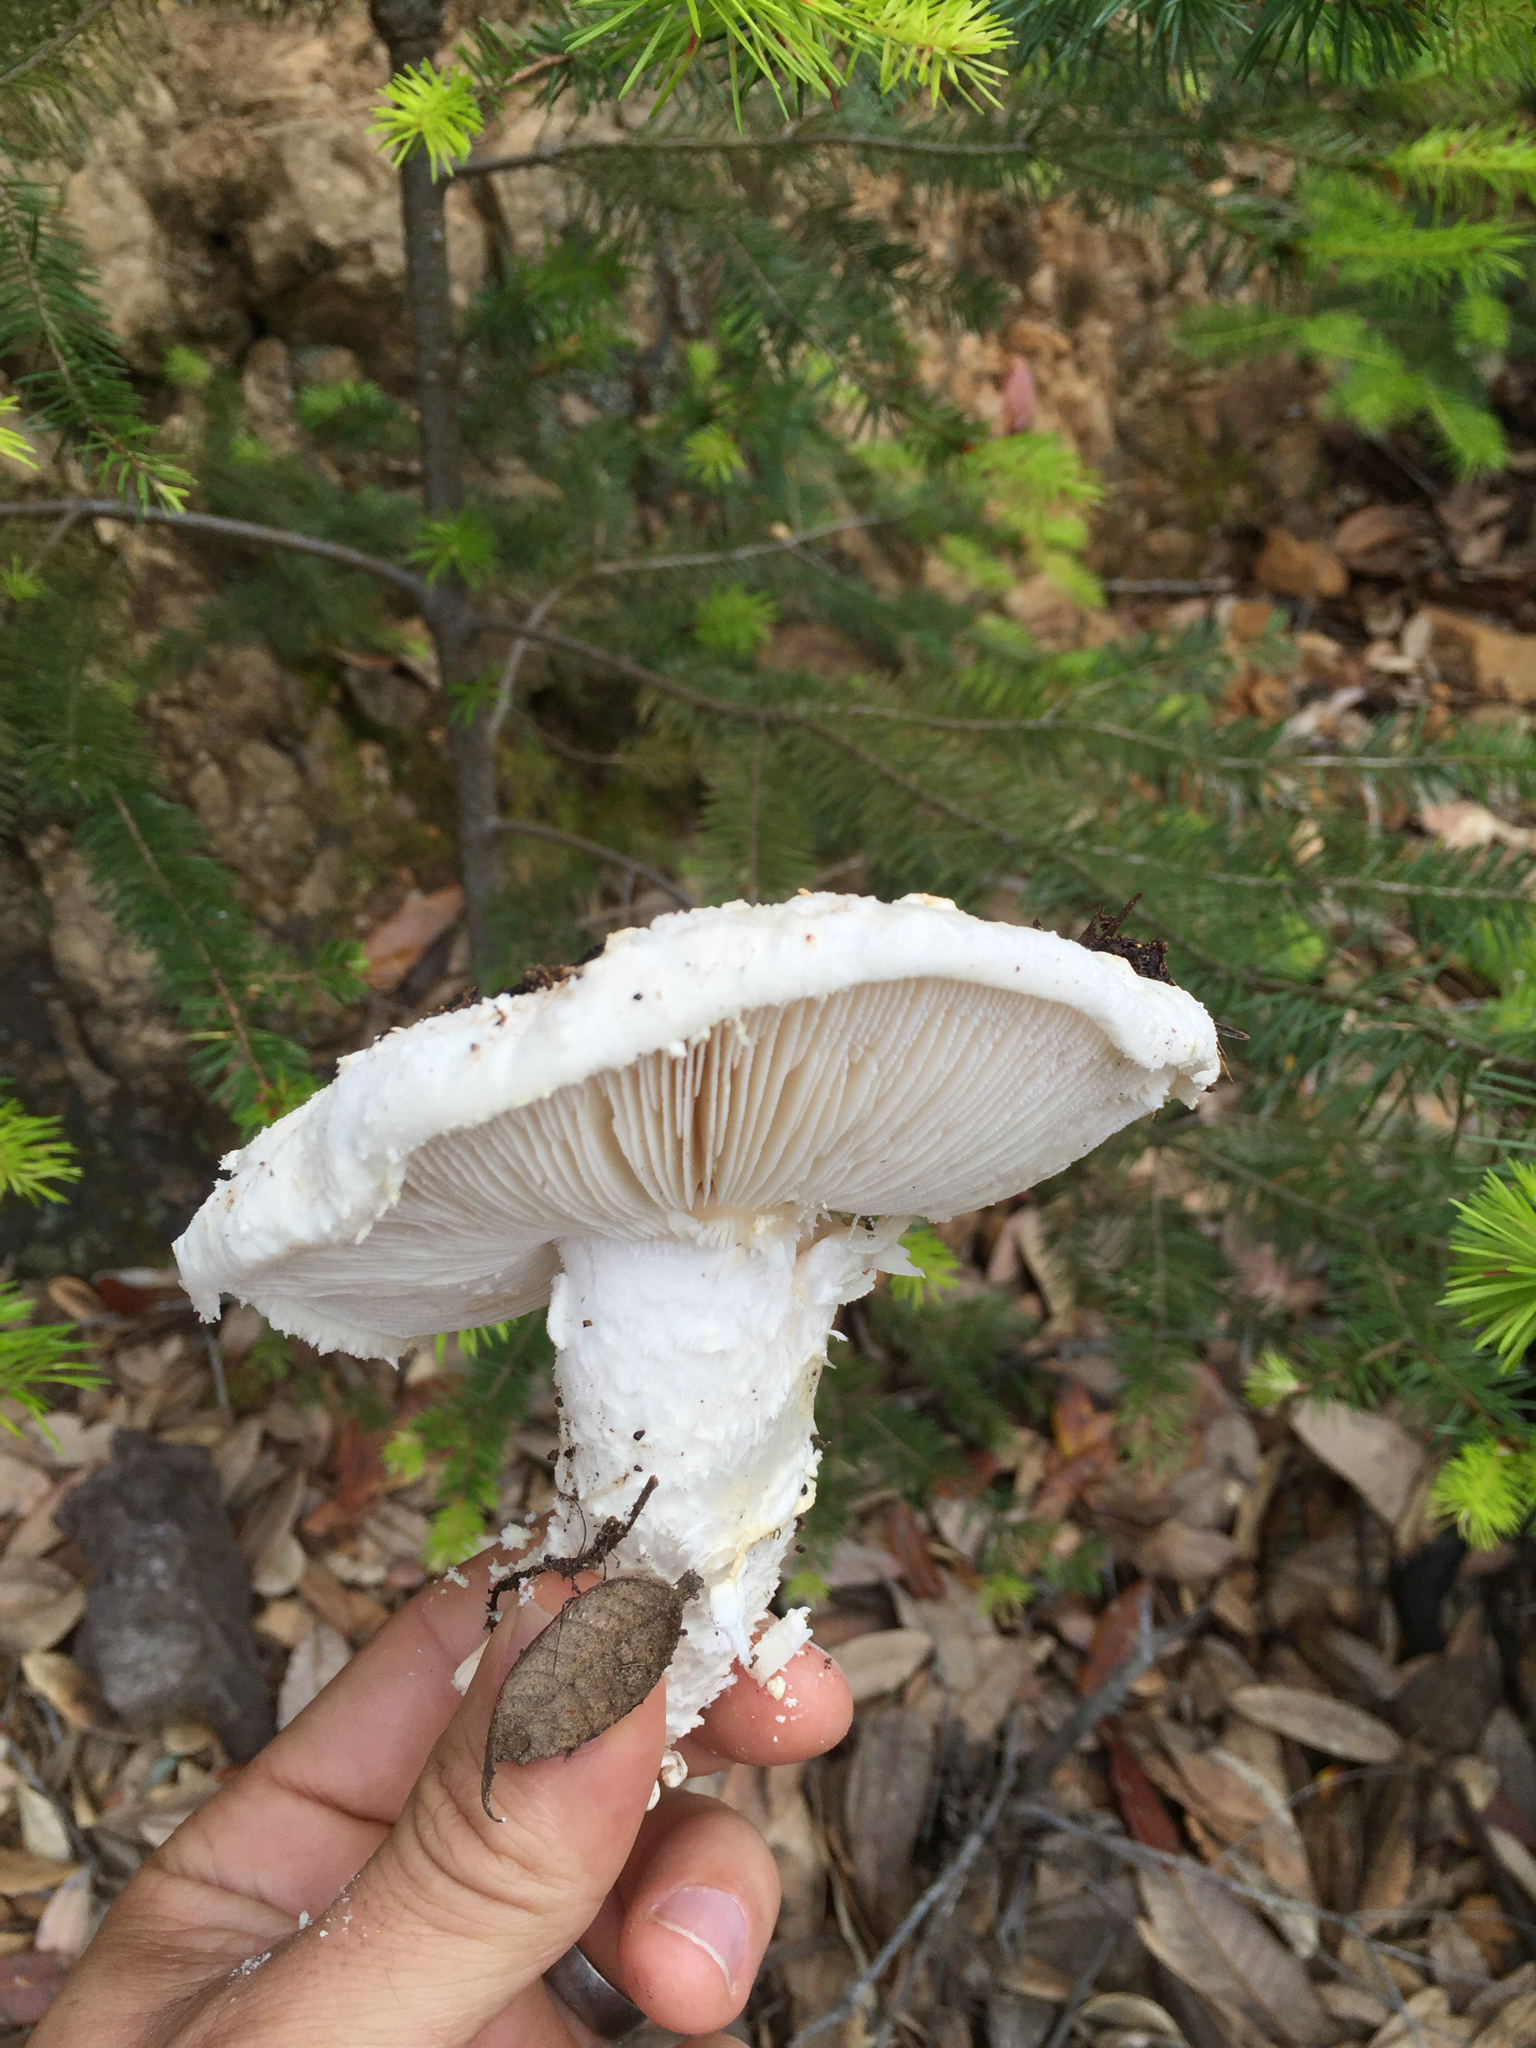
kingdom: Fungi
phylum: Basidiomycota
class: Agaricomycetes
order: Agaricales
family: Amanitaceae
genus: Amanita
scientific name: Amanita magniverrucata
